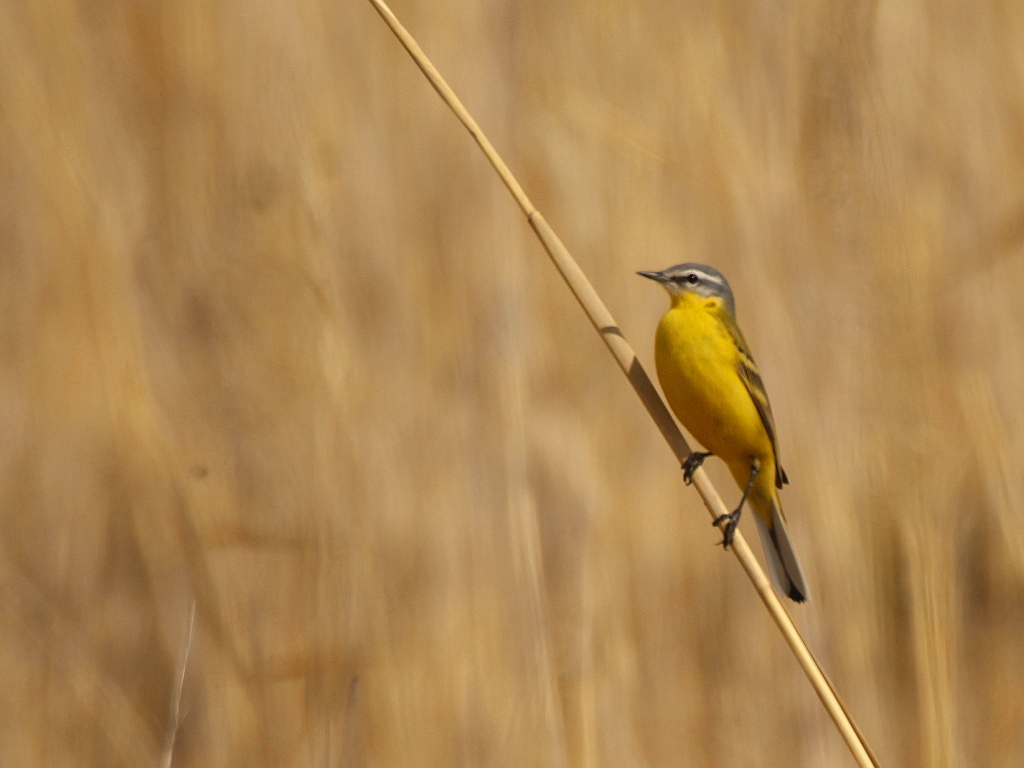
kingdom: Animalia
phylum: Chordata
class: Aves
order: Passeriformes
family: Motacillidae
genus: Motacilla
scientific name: Motacilla flava
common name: Western yellow wagtail
